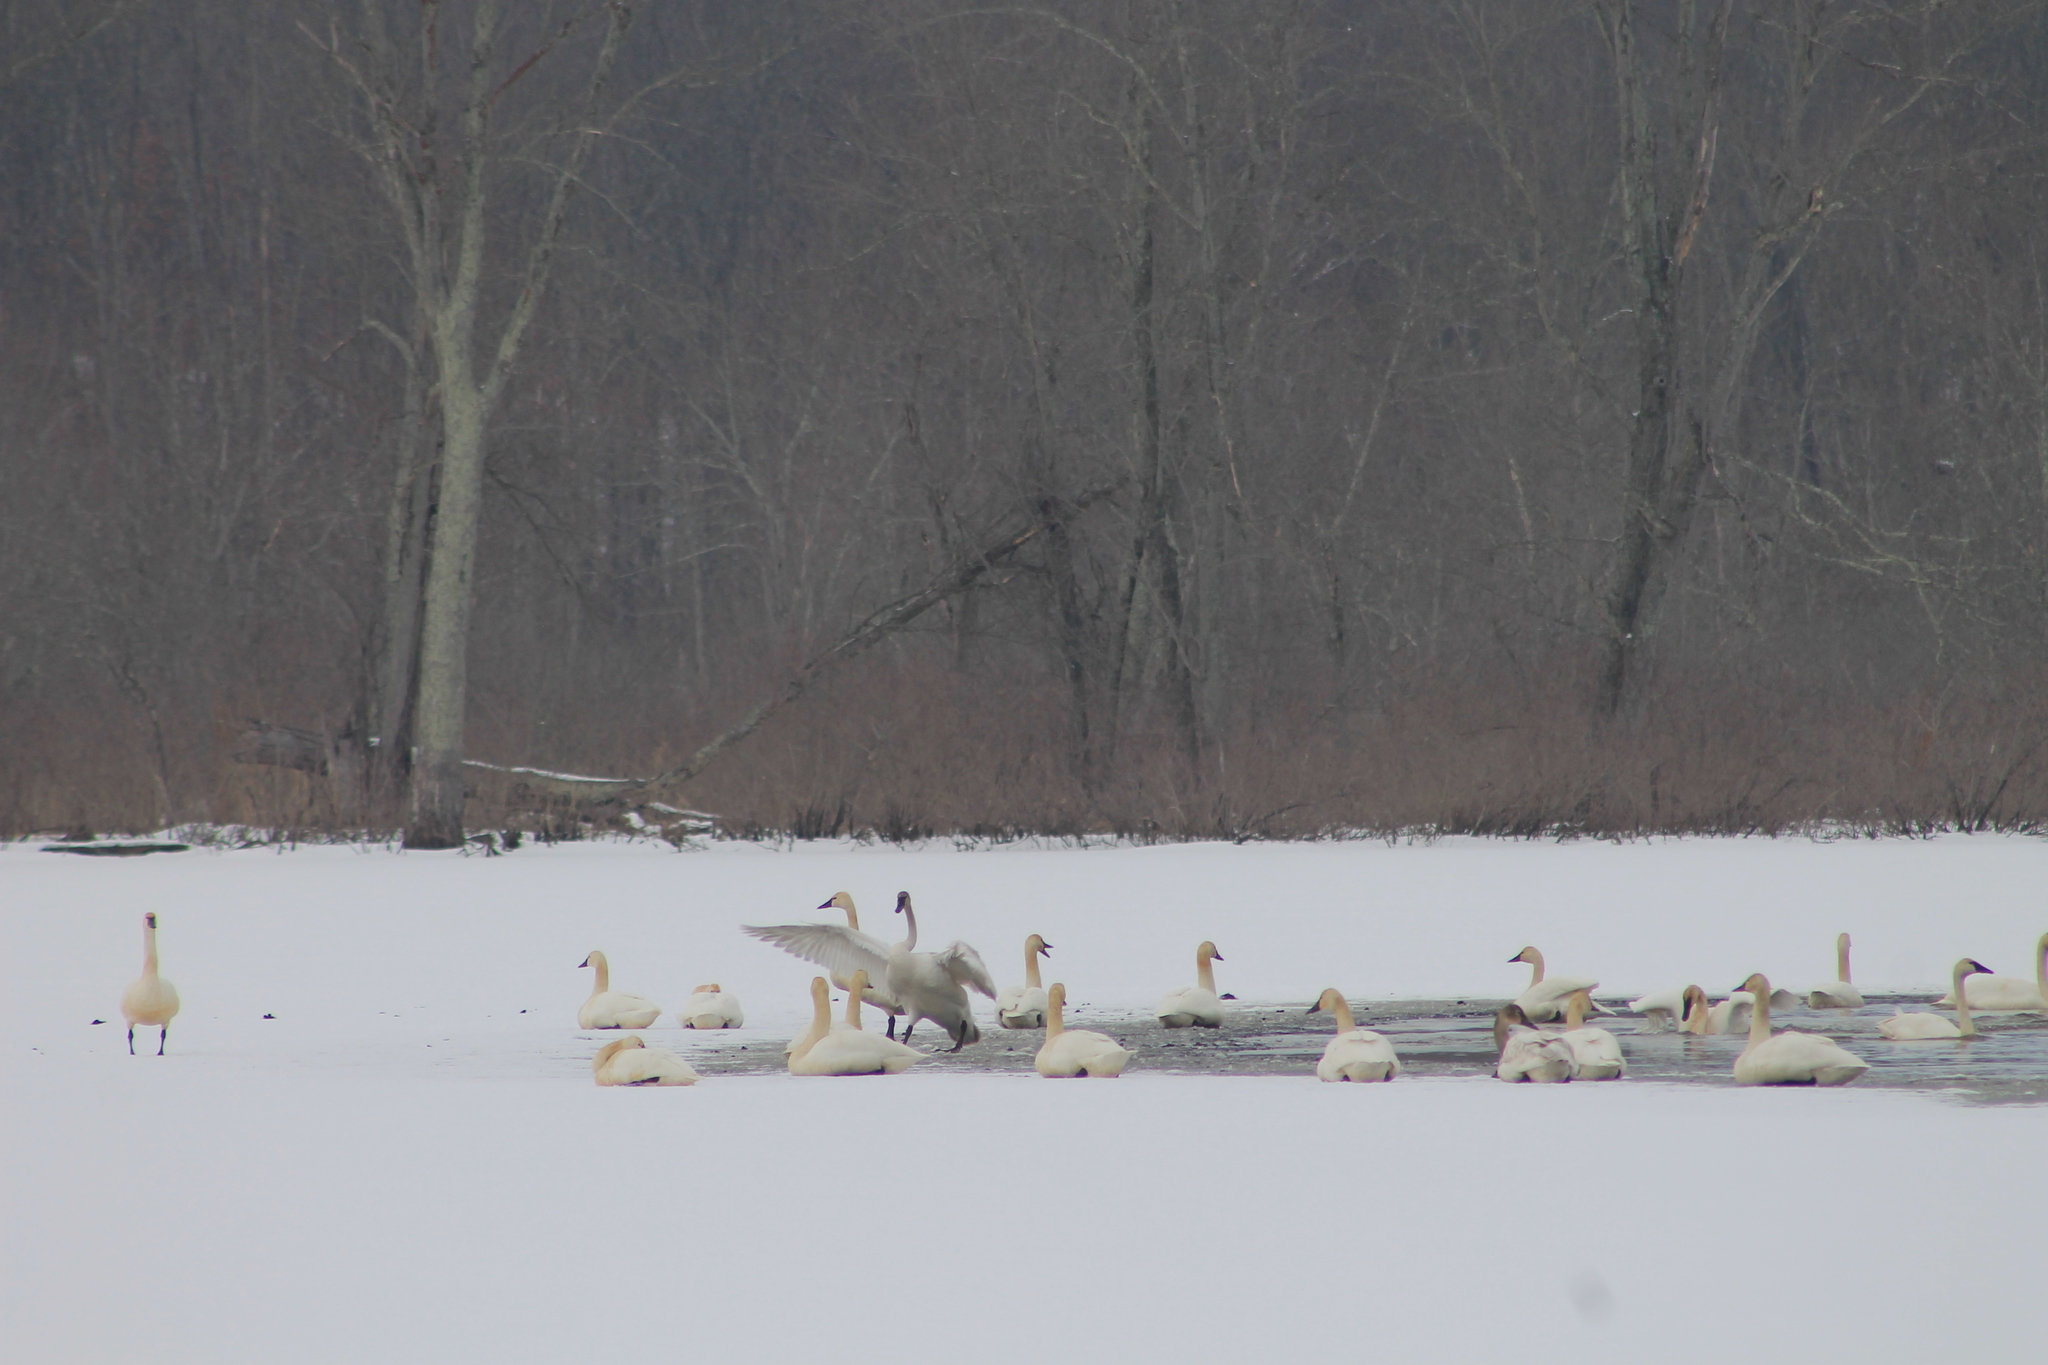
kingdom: Animalia
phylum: Chordata
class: Aves
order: Anseriformes
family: Anatidae
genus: Cygnus
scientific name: Cygnus columbianus
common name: Tundra swan
